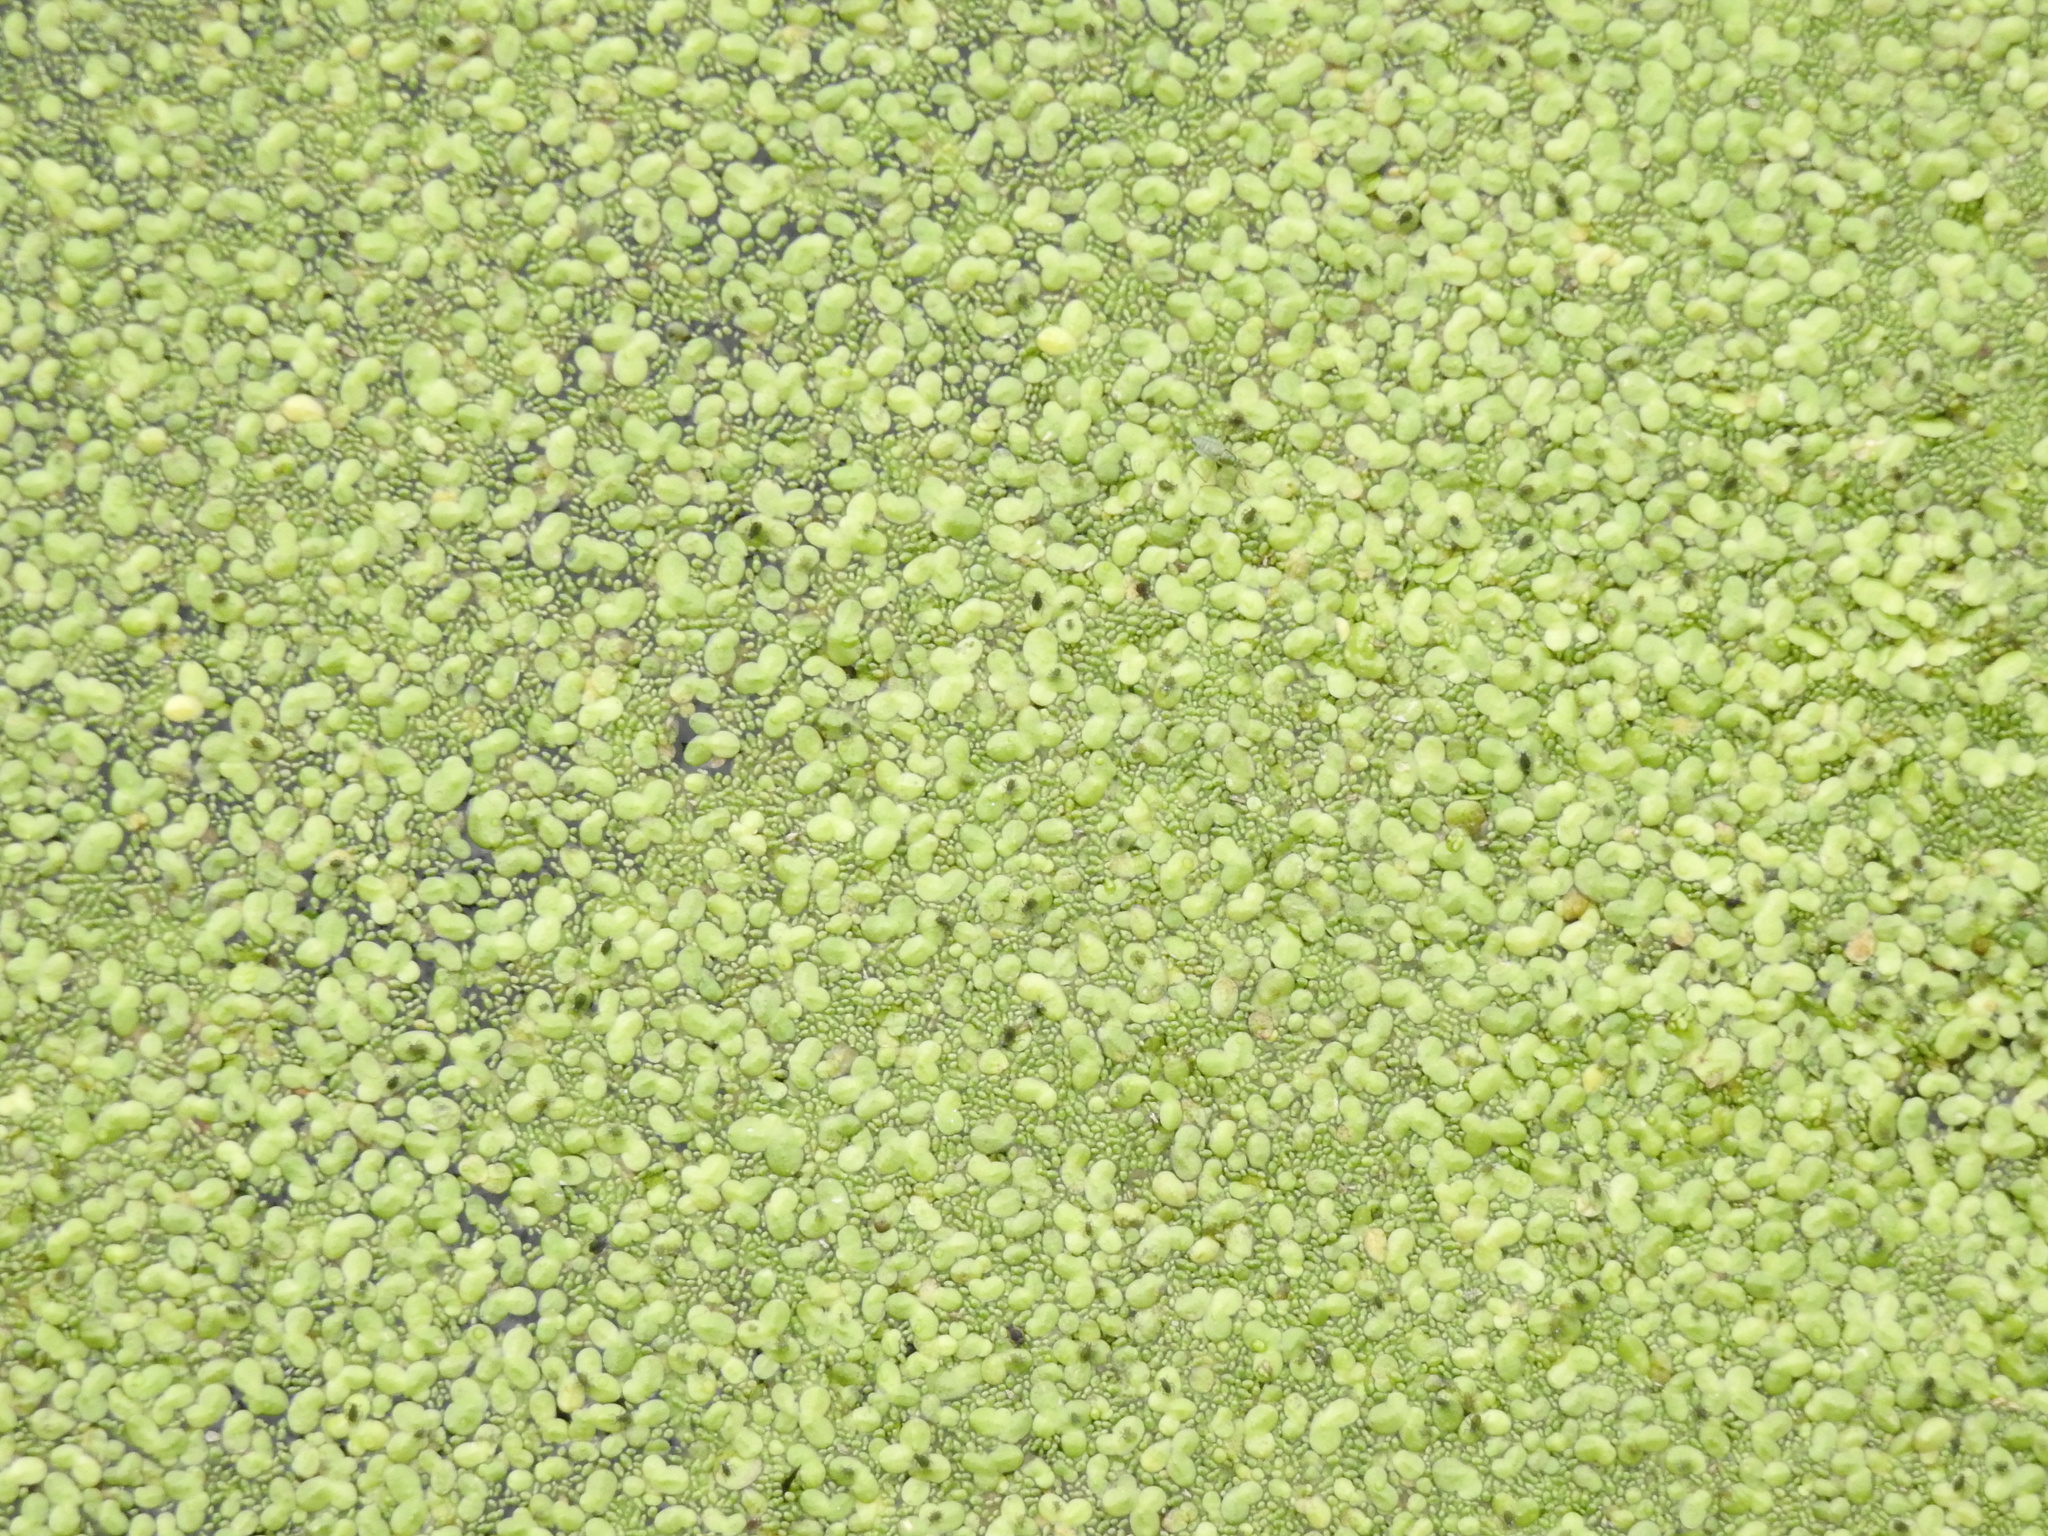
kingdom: Plantae
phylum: Tracheophyta
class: Liliopsida
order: Alismatales
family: Araceae
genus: Lemna
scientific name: Lemna minor
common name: Common duckweed
